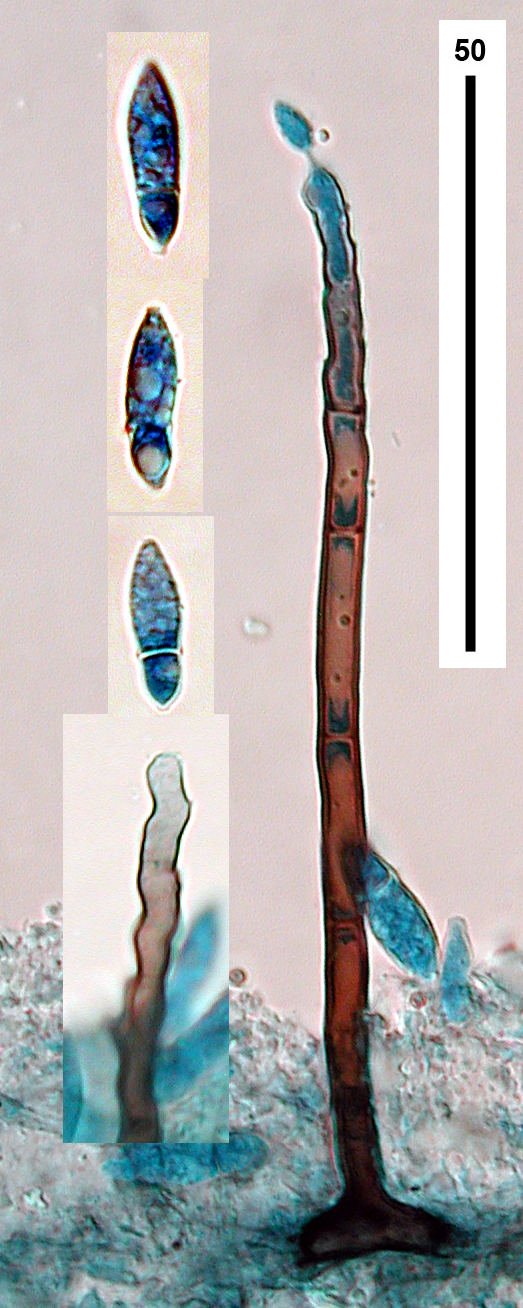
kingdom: Fungi
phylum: Ascomycota
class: Leotiomycetes
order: Helotiales
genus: Dactylaria
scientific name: Dactylaria mitrata
